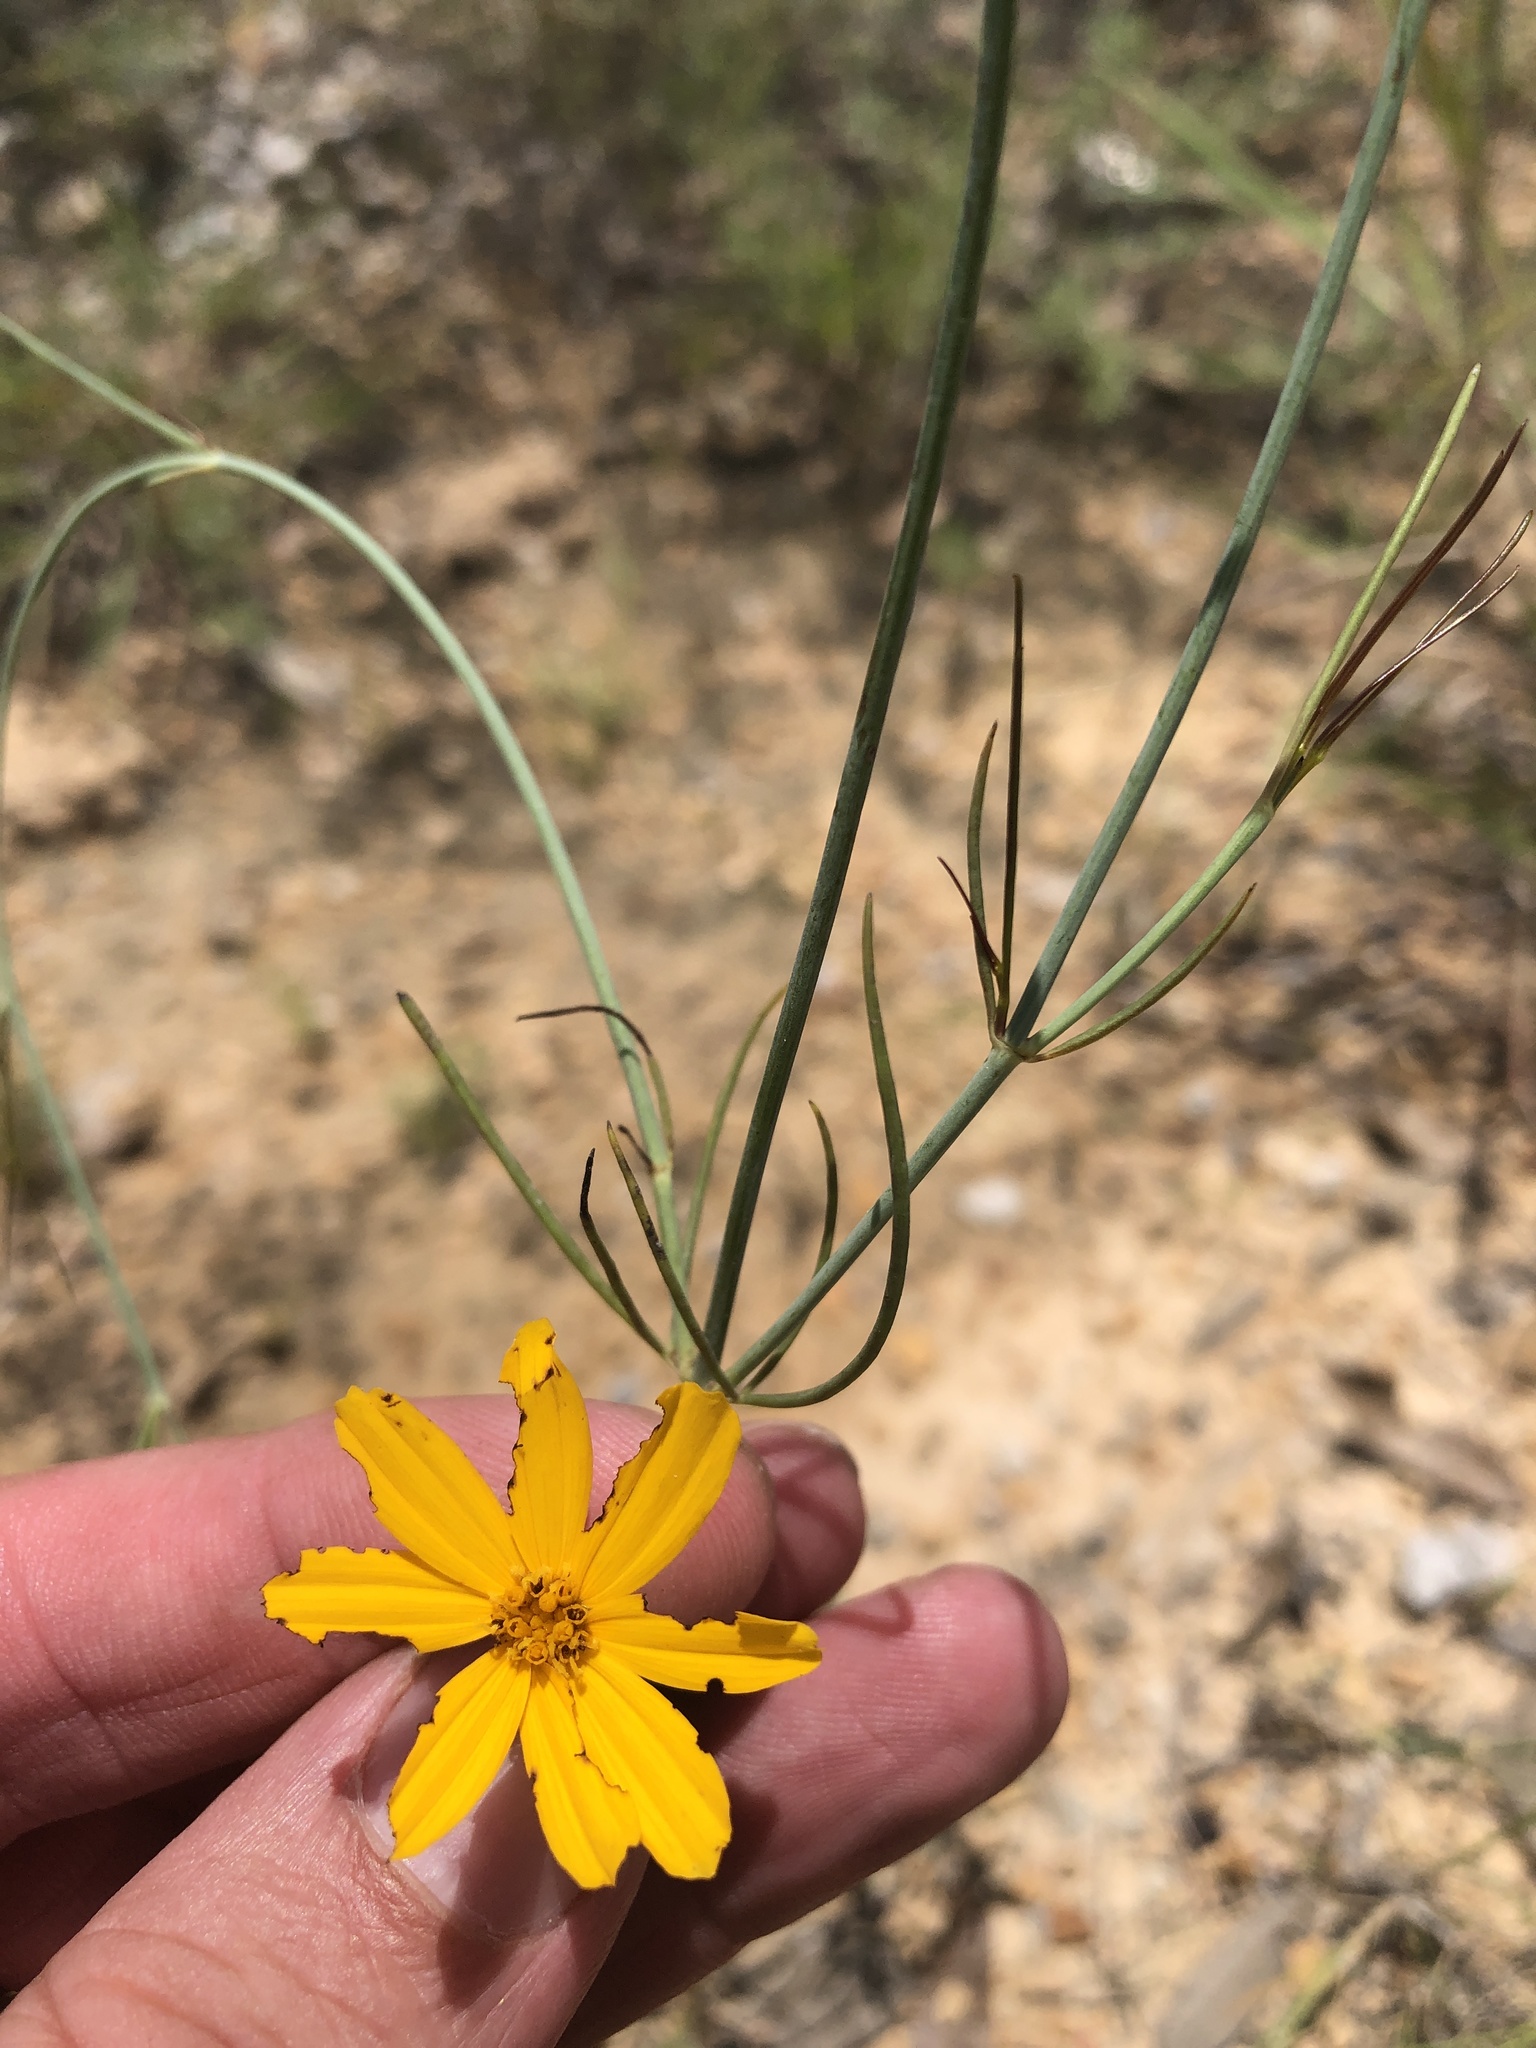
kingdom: Plantae
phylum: Tracheophyta
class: Magnoliopsida
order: Asterales
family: Asteraceae
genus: Thelesperma
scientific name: Thelesperma simplicifolium
